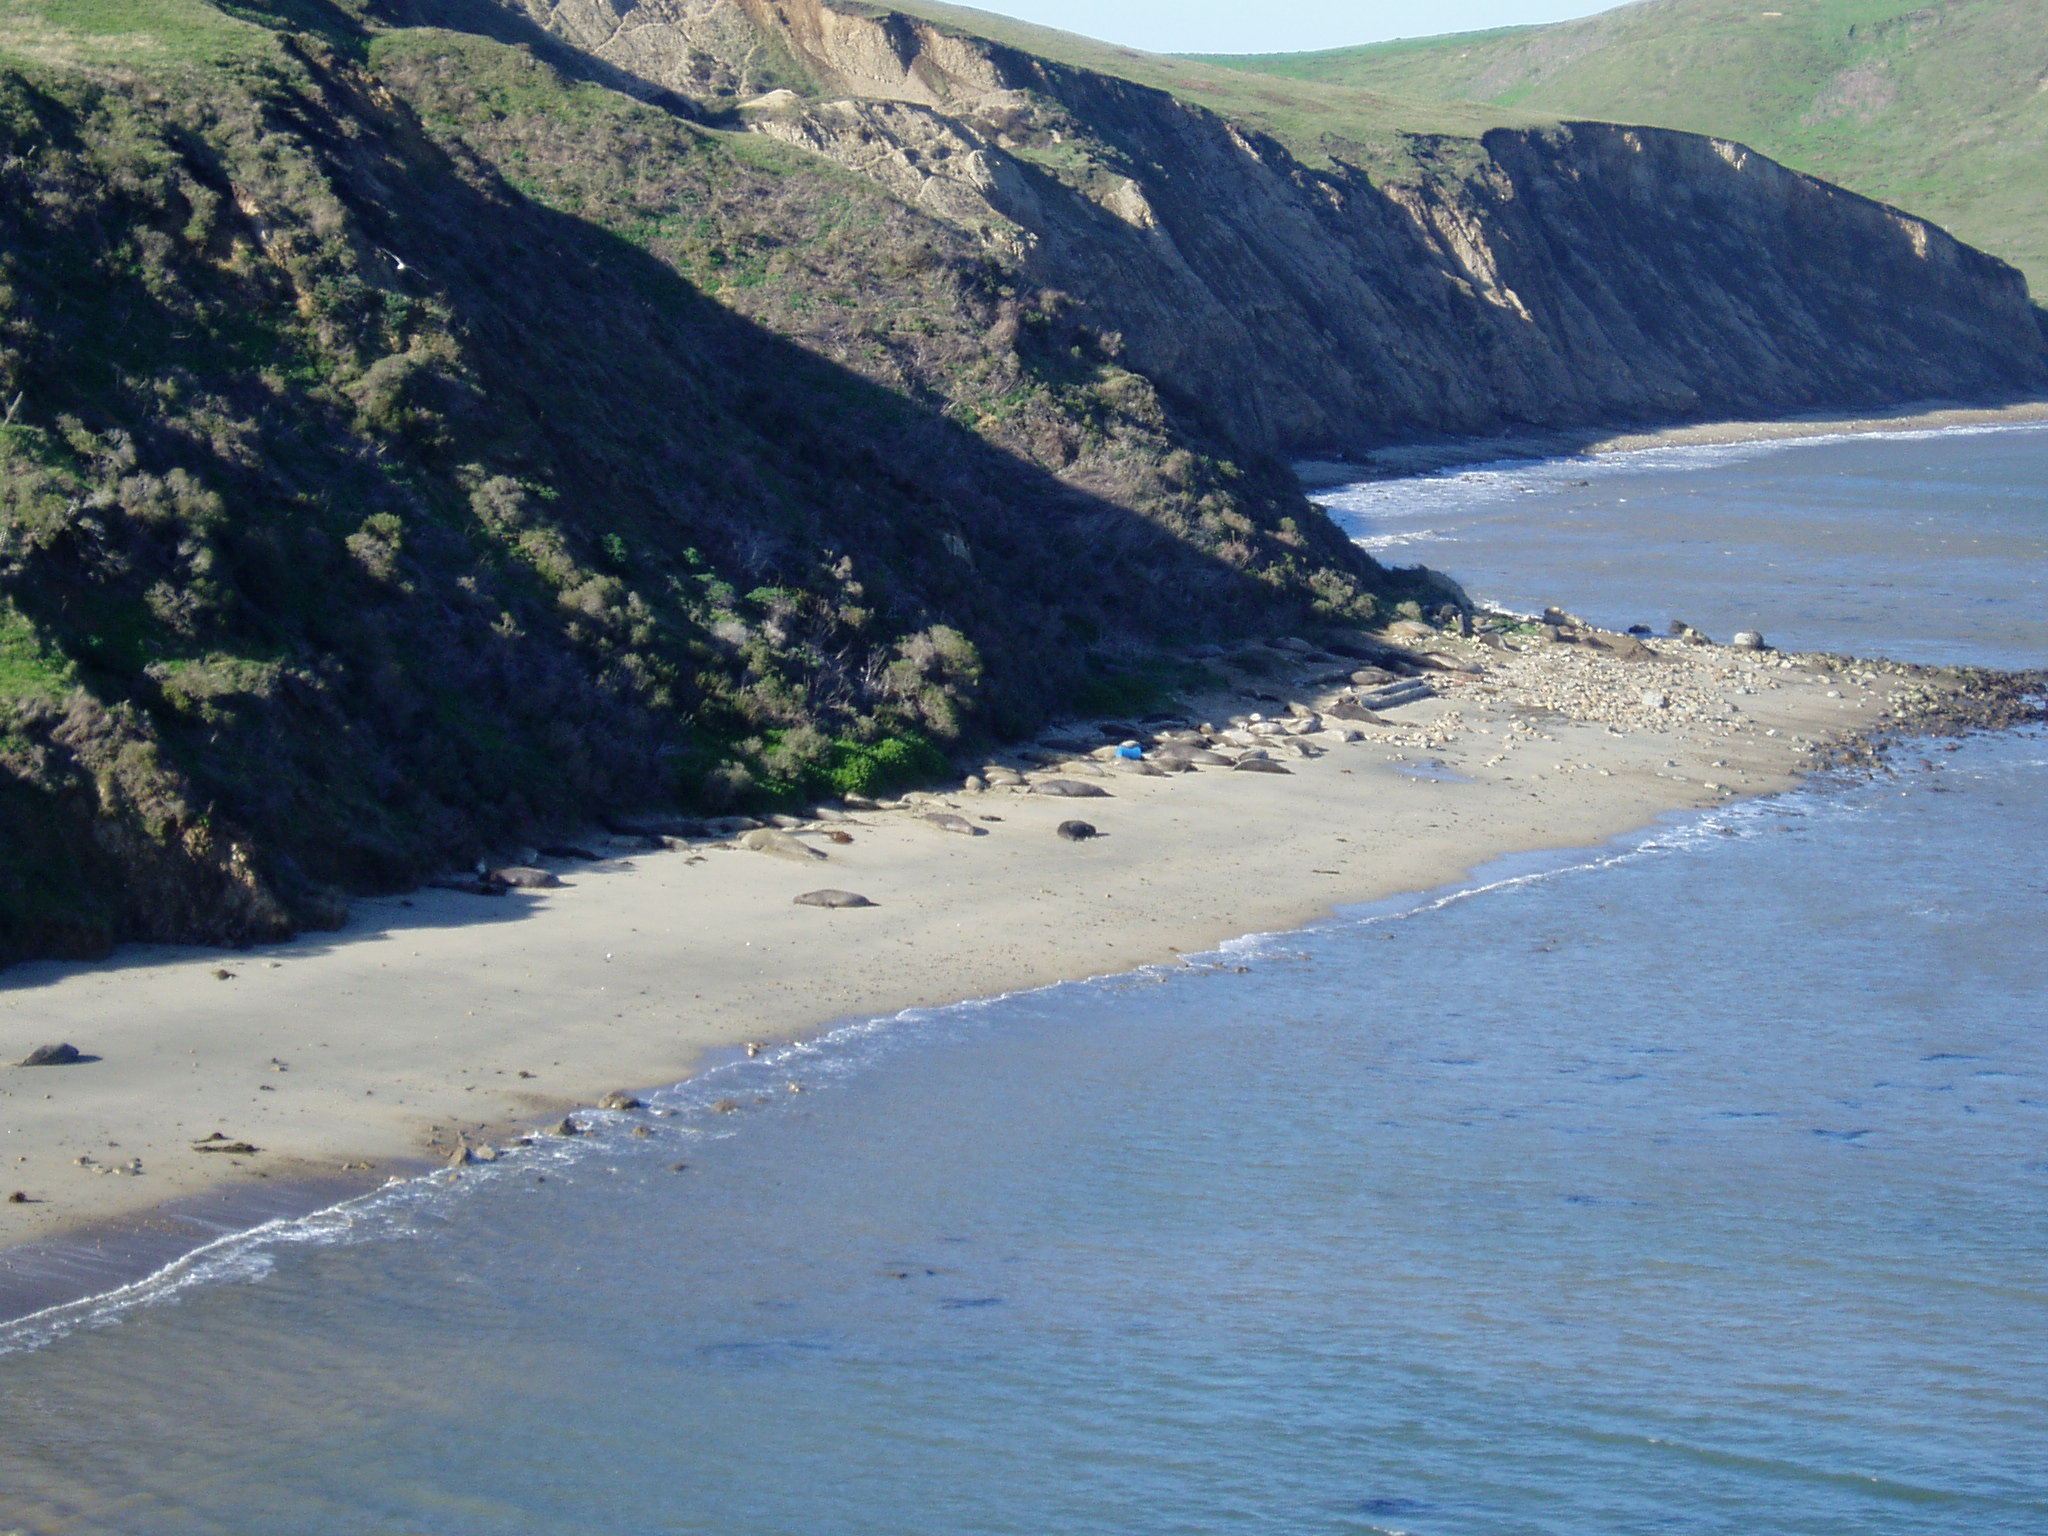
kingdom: Animalia
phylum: Chordata
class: Mammalia
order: Carnivora
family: Phocidae
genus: Mirounga
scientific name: Mirounga angustirostris
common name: Northern elephant seal
